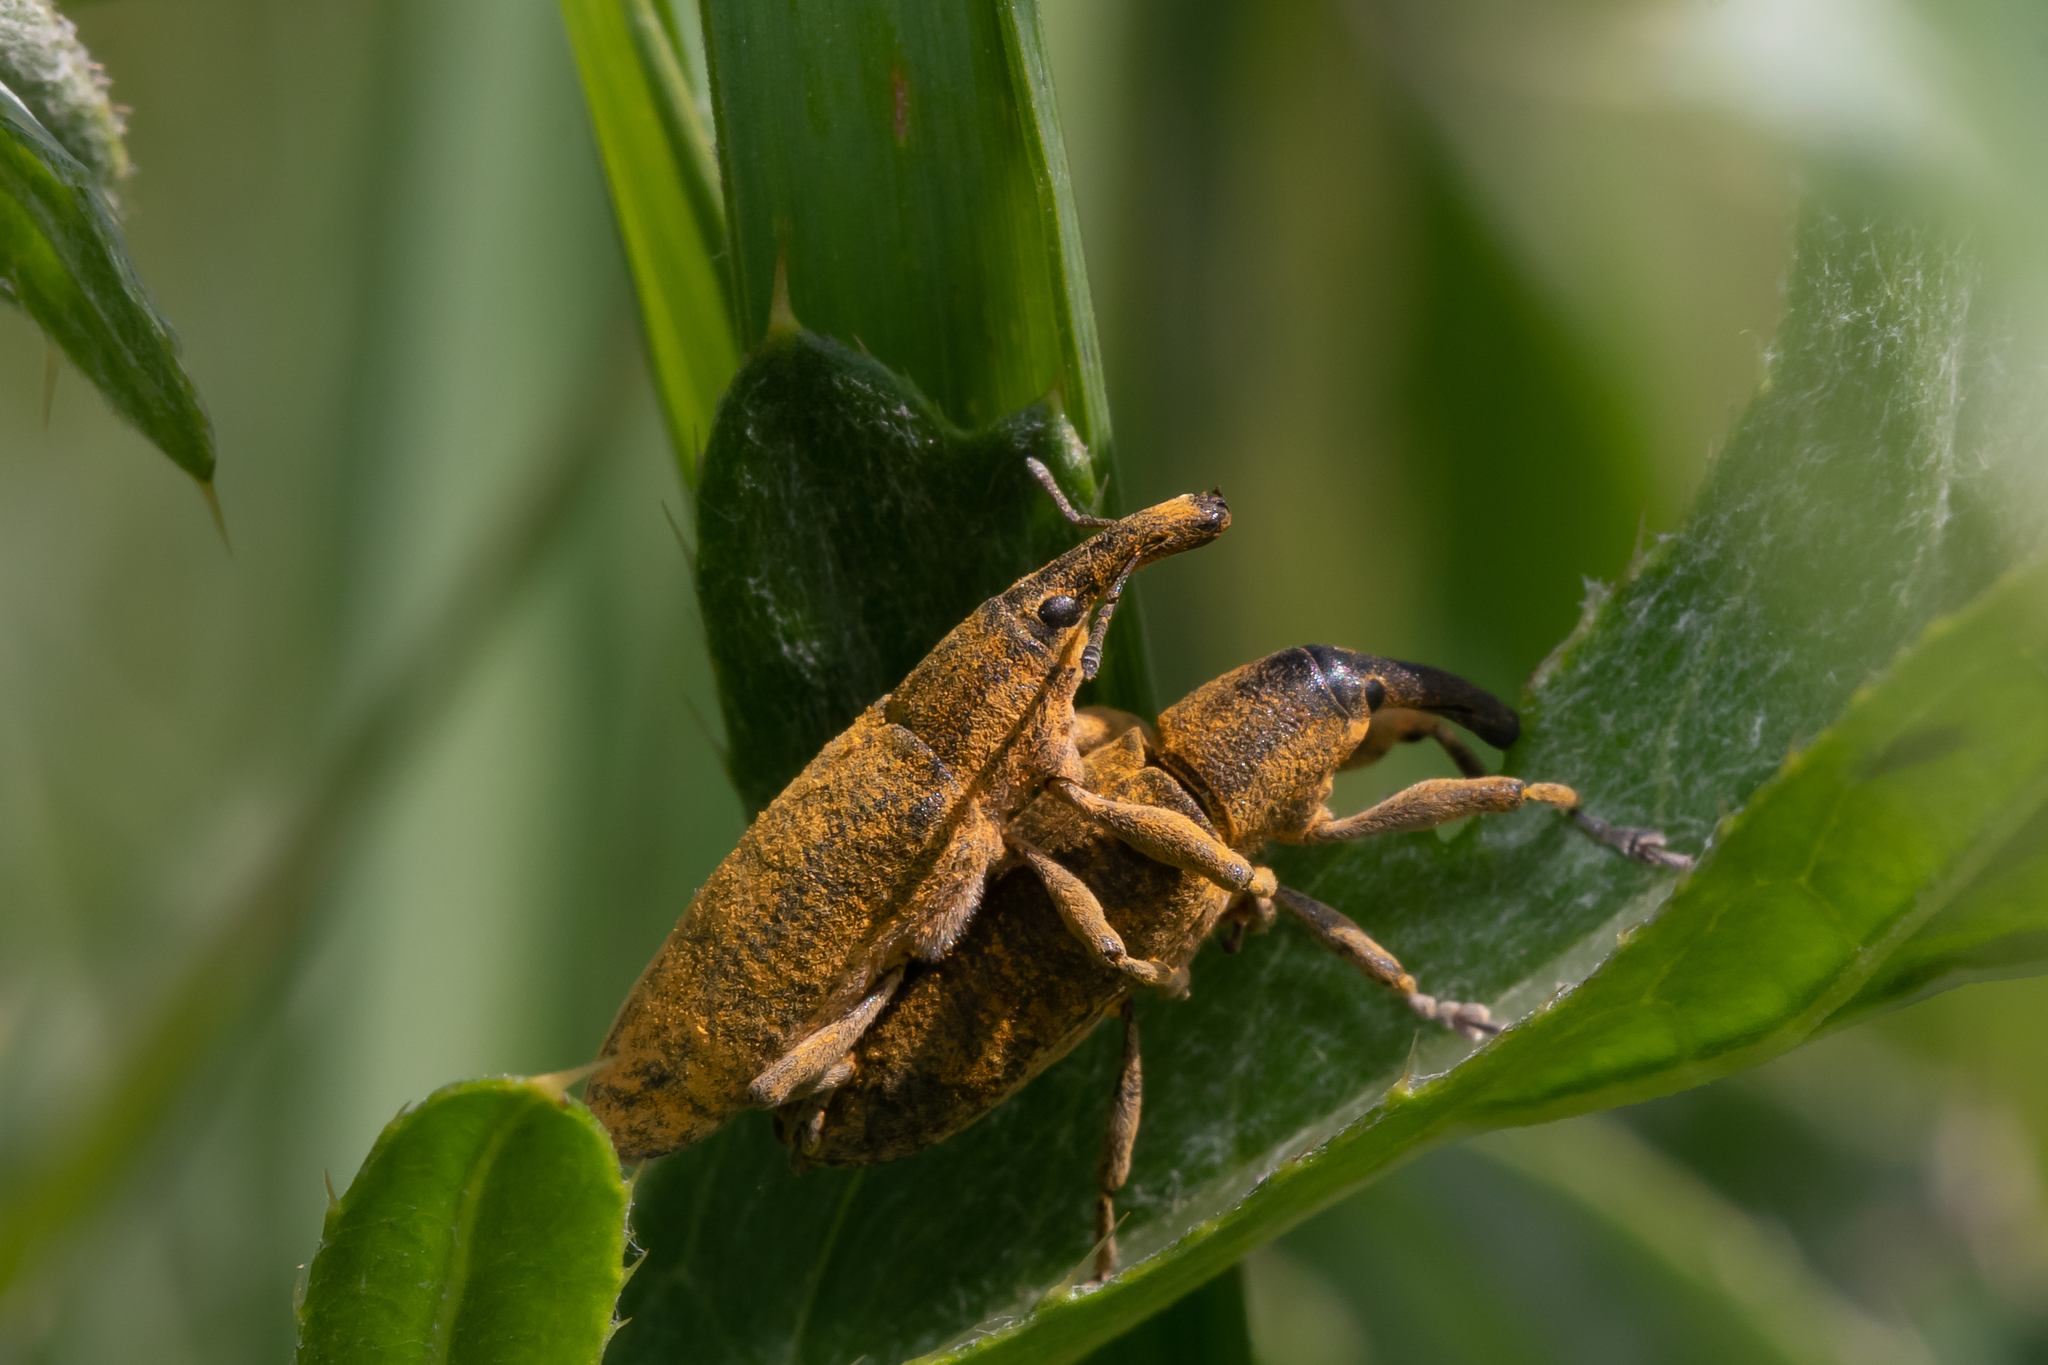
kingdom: Animalia
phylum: Arthropoda
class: Insecta
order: Coleoptera
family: Curculionidae
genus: Lixus
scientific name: Lixus pulverulentus
